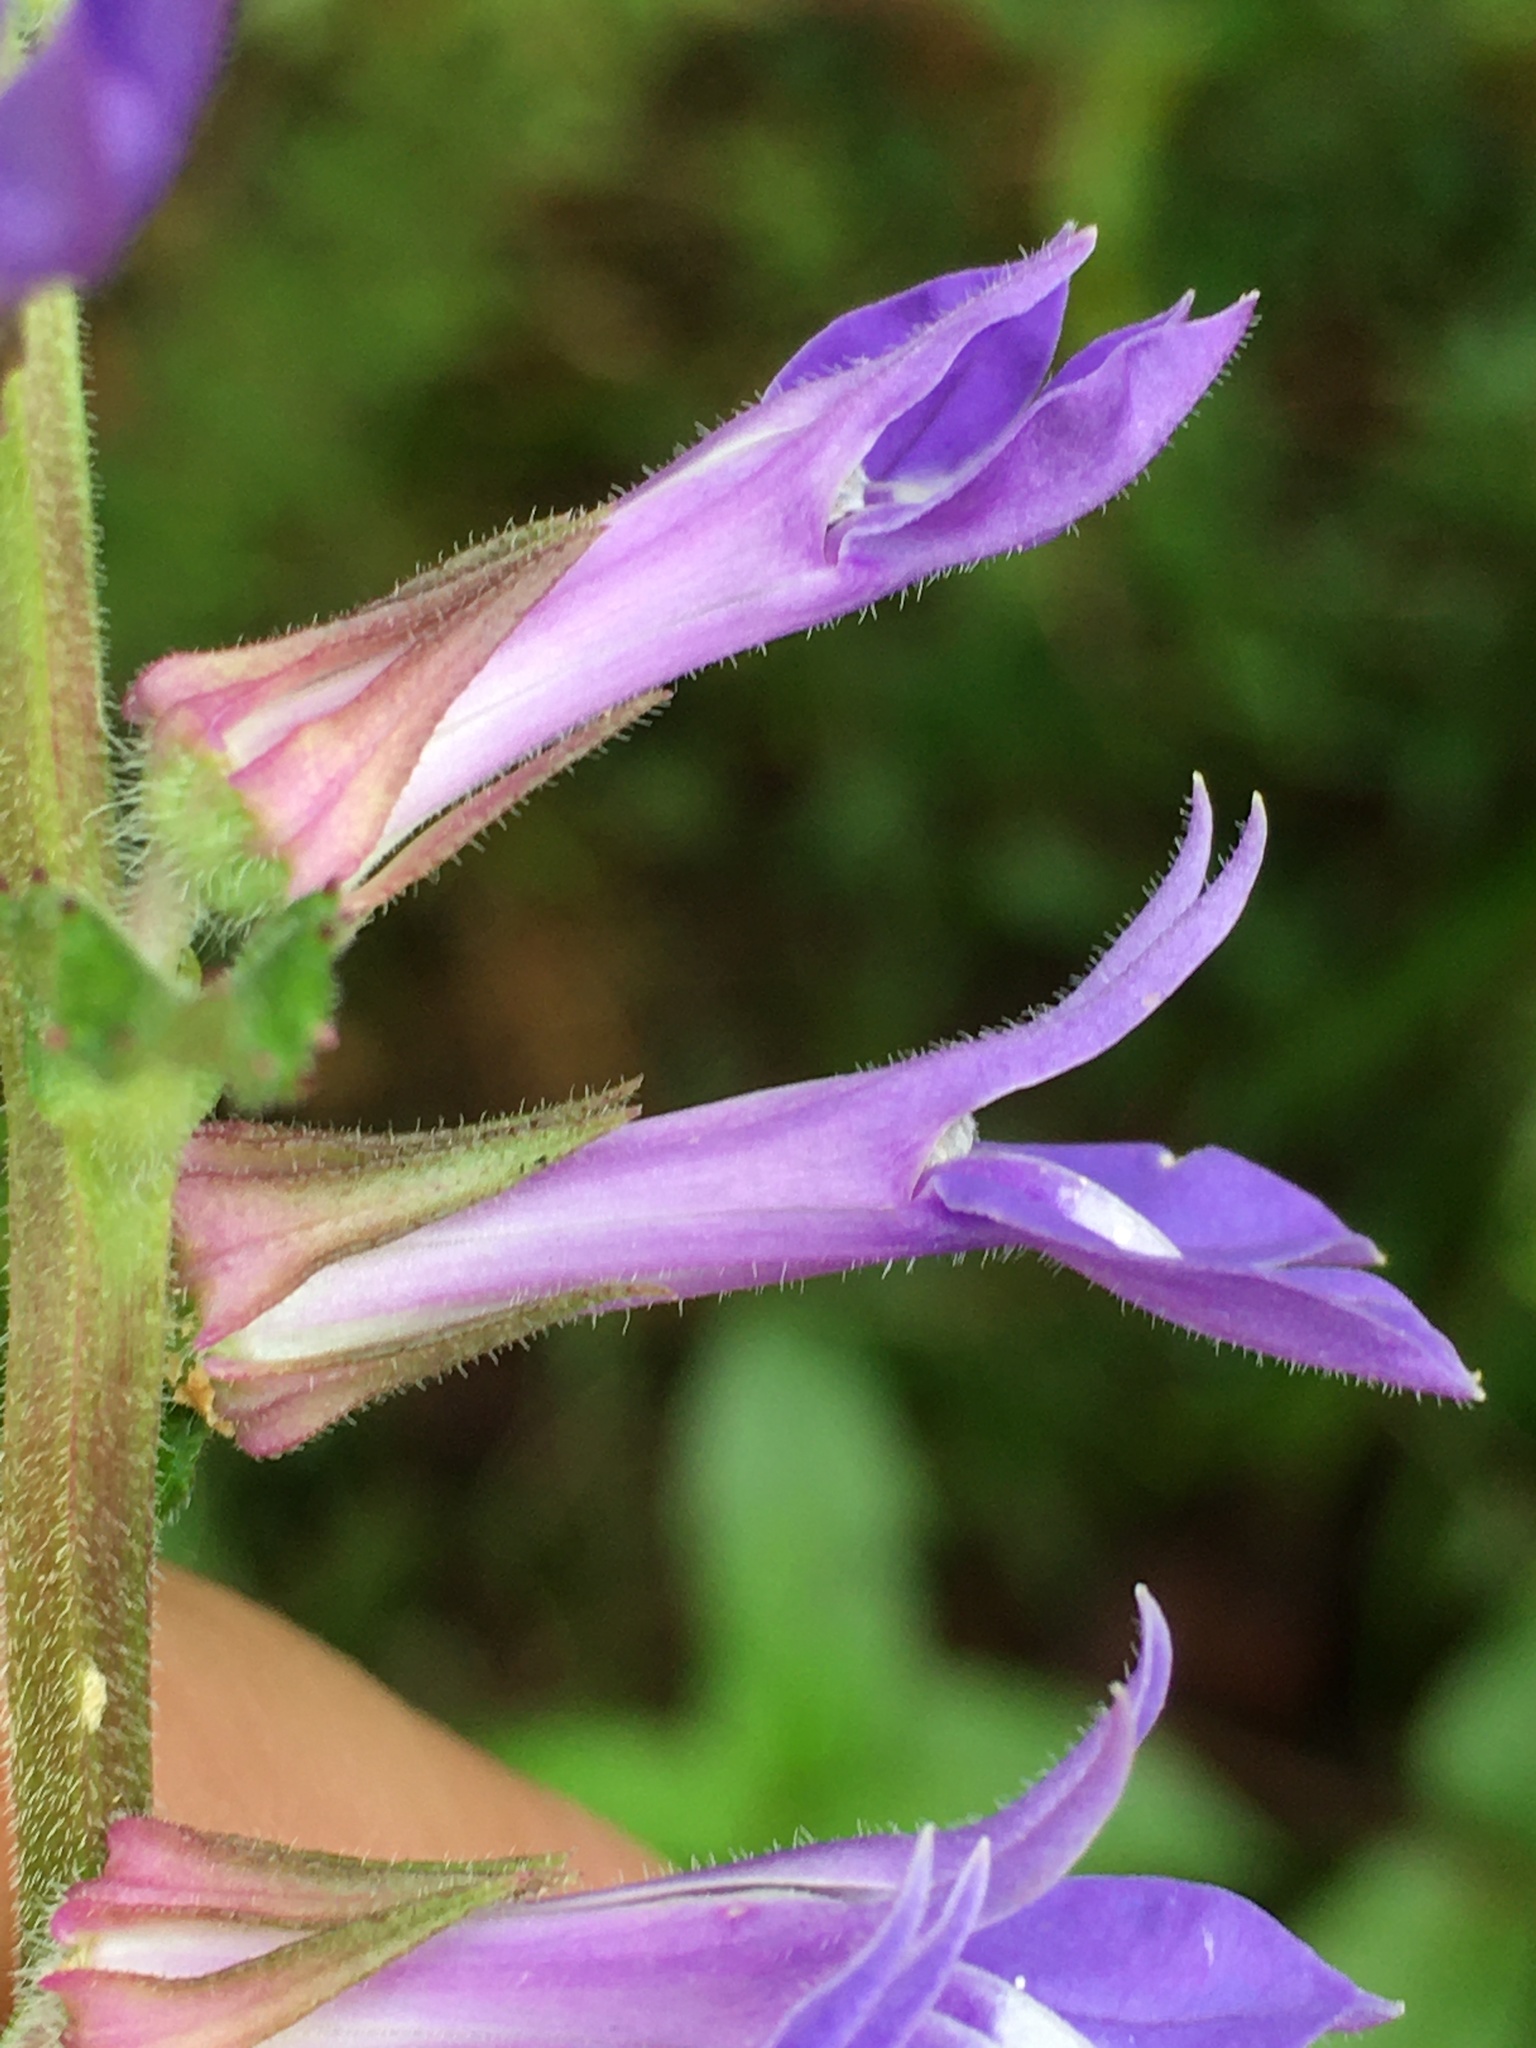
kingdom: Plantae
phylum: Tracheophyta
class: Magnoliopsida
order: Asterales
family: Campanulaceae
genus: Lobelia
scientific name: Lobelia puberula
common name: Purple dewdrop
